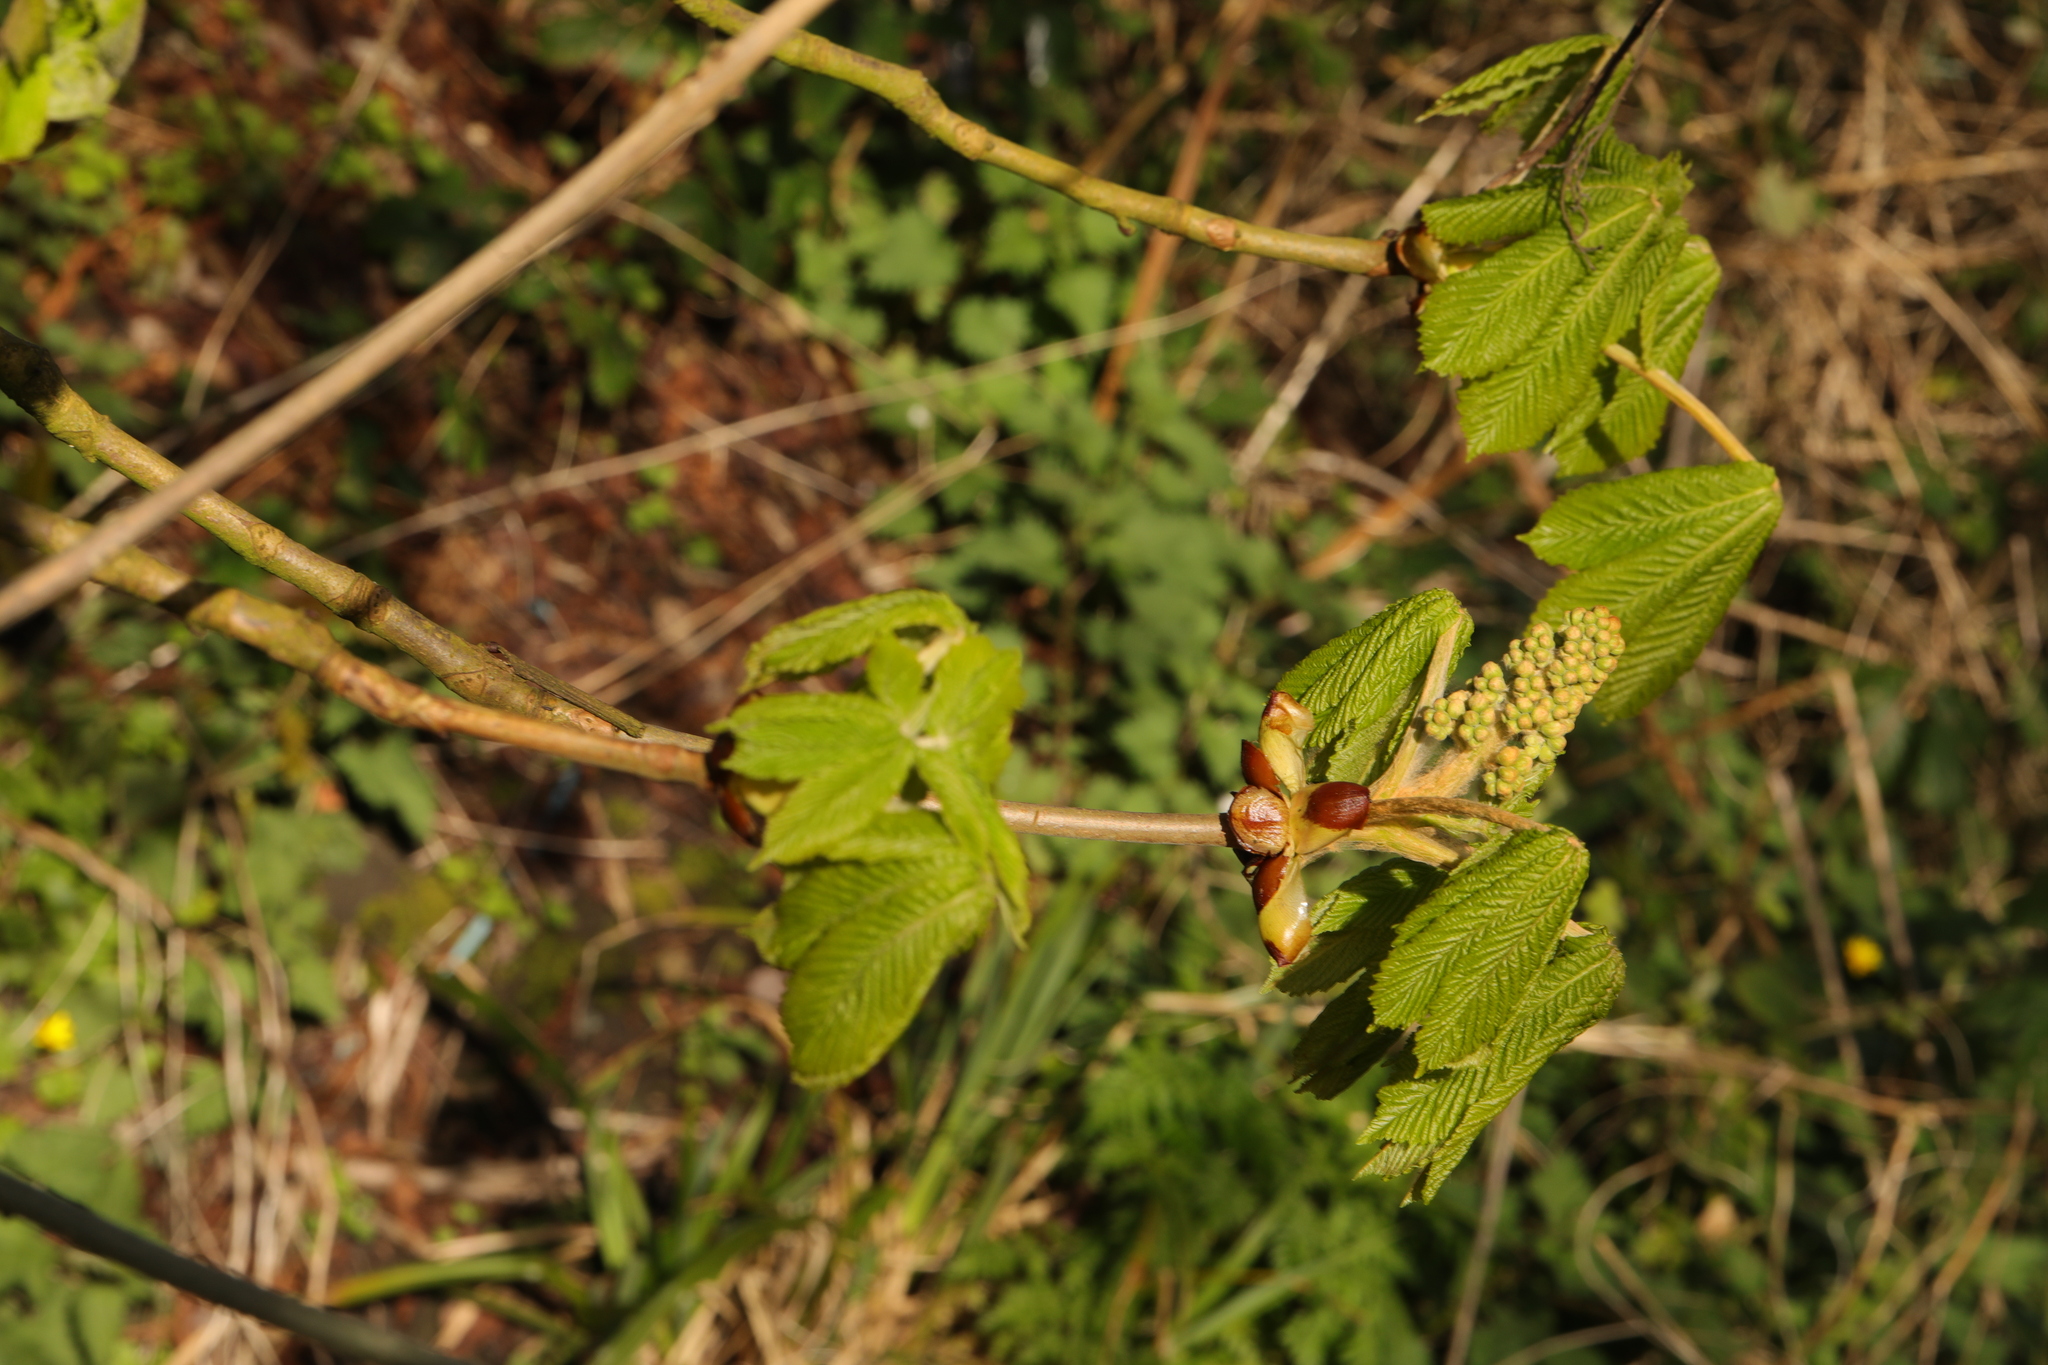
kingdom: Plantae
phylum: Tracheophyta
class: Magnoliopsida
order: Sapindales
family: Sapindaceae
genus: Aesculus
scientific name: Aesculus hippocastanum
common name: Horse-chestnut
